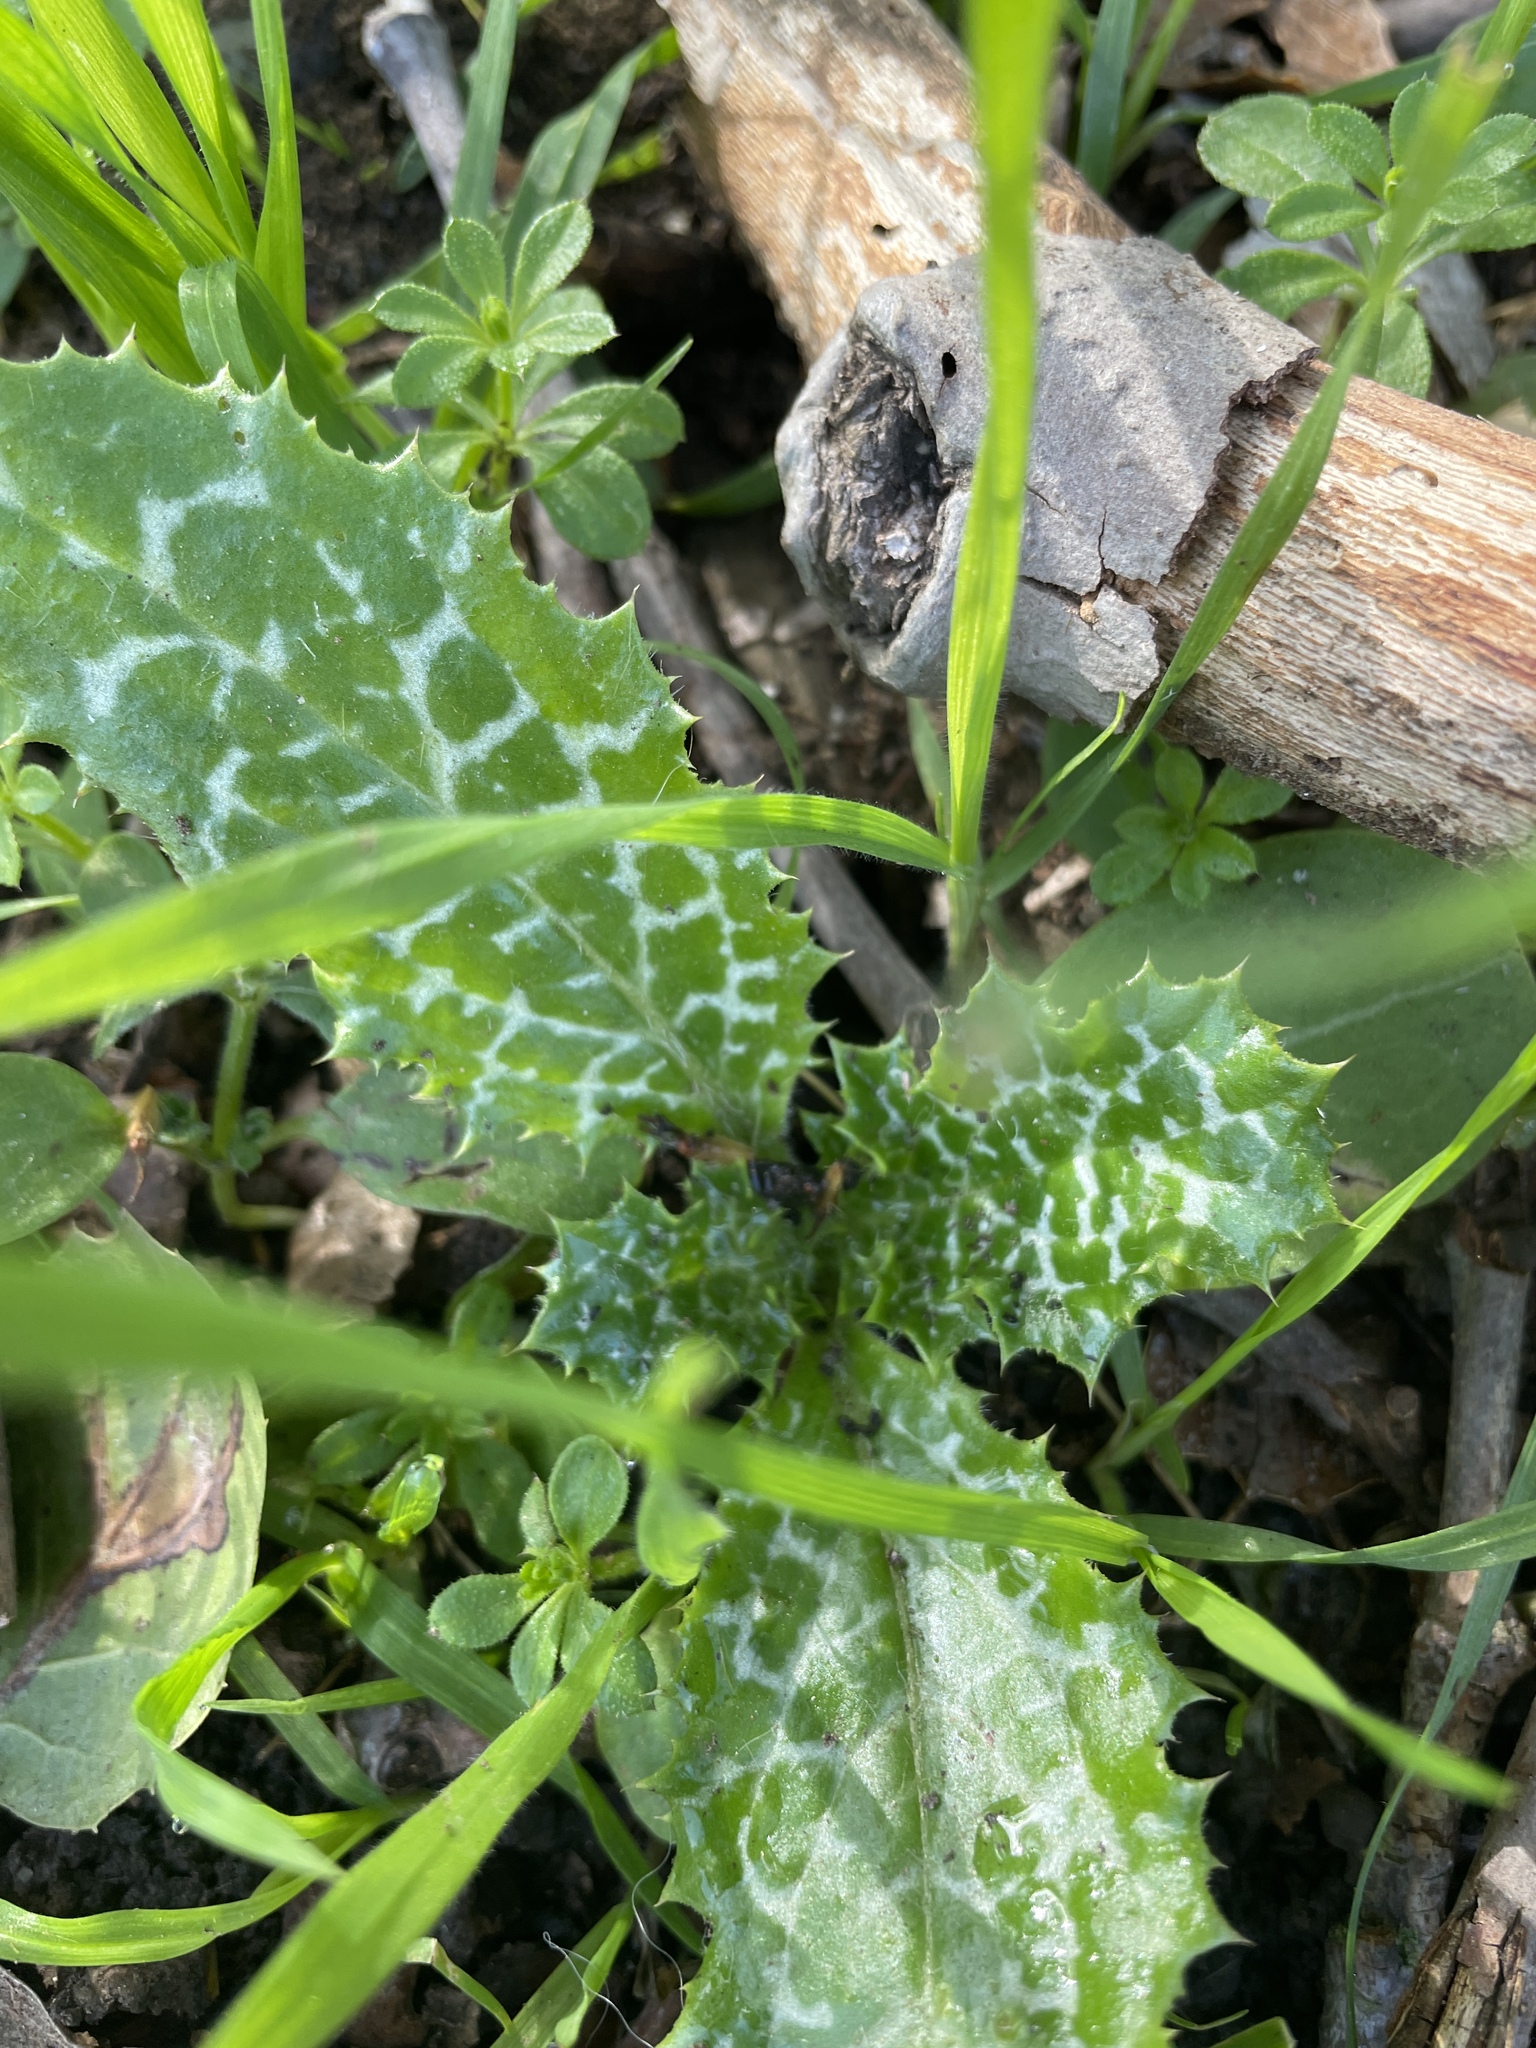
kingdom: Plantae
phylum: Tracheophyta
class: Magnoliopsida
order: Asterales
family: Asteraceae
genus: Silybum
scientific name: Silybum marianum
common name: Milk thistle
